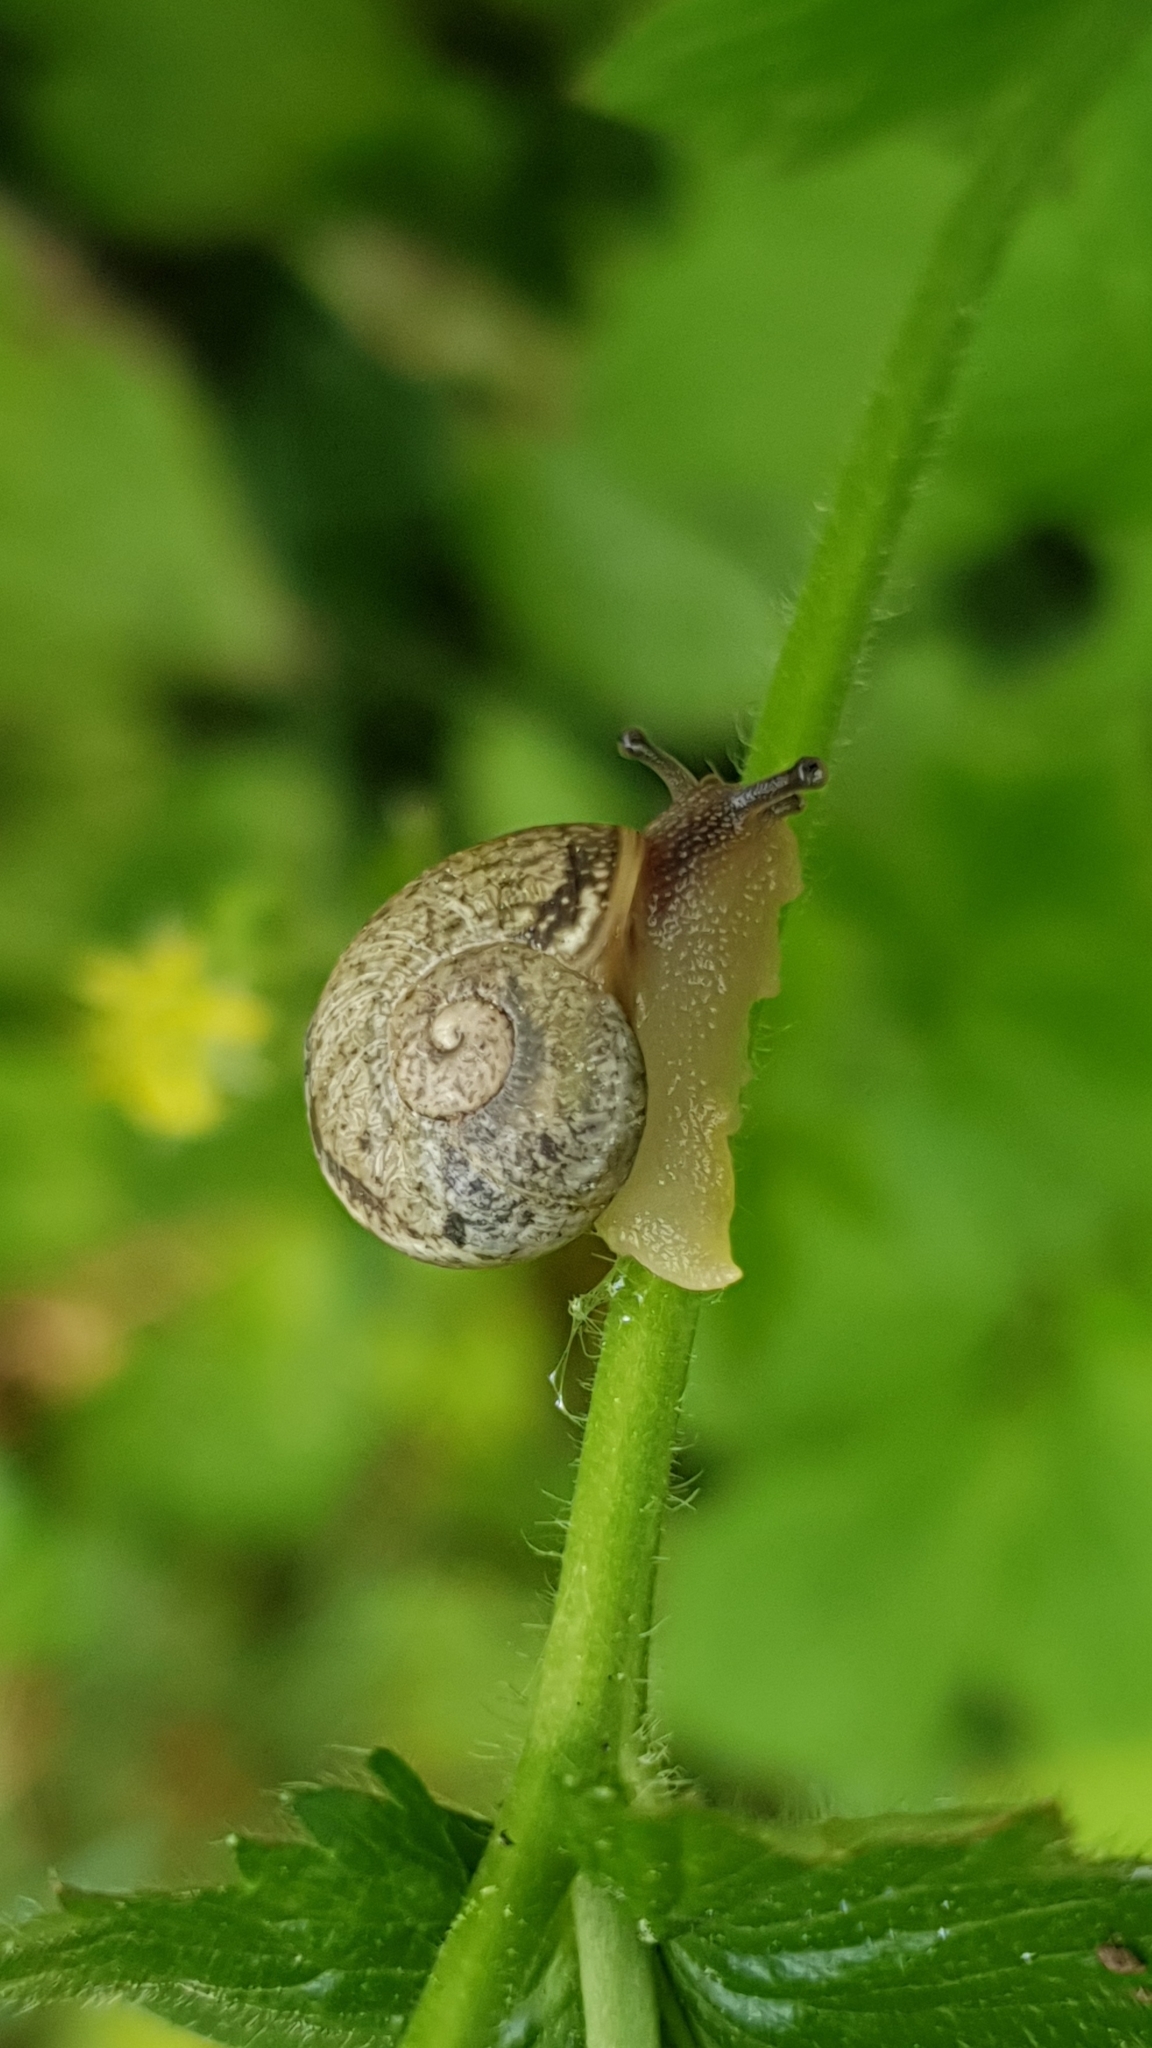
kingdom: Animalia
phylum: Mollusca
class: Gastropoda
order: Stylommatophora
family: Helicidae
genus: Cornu
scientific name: Cornu aspersum
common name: Brown garden snail
